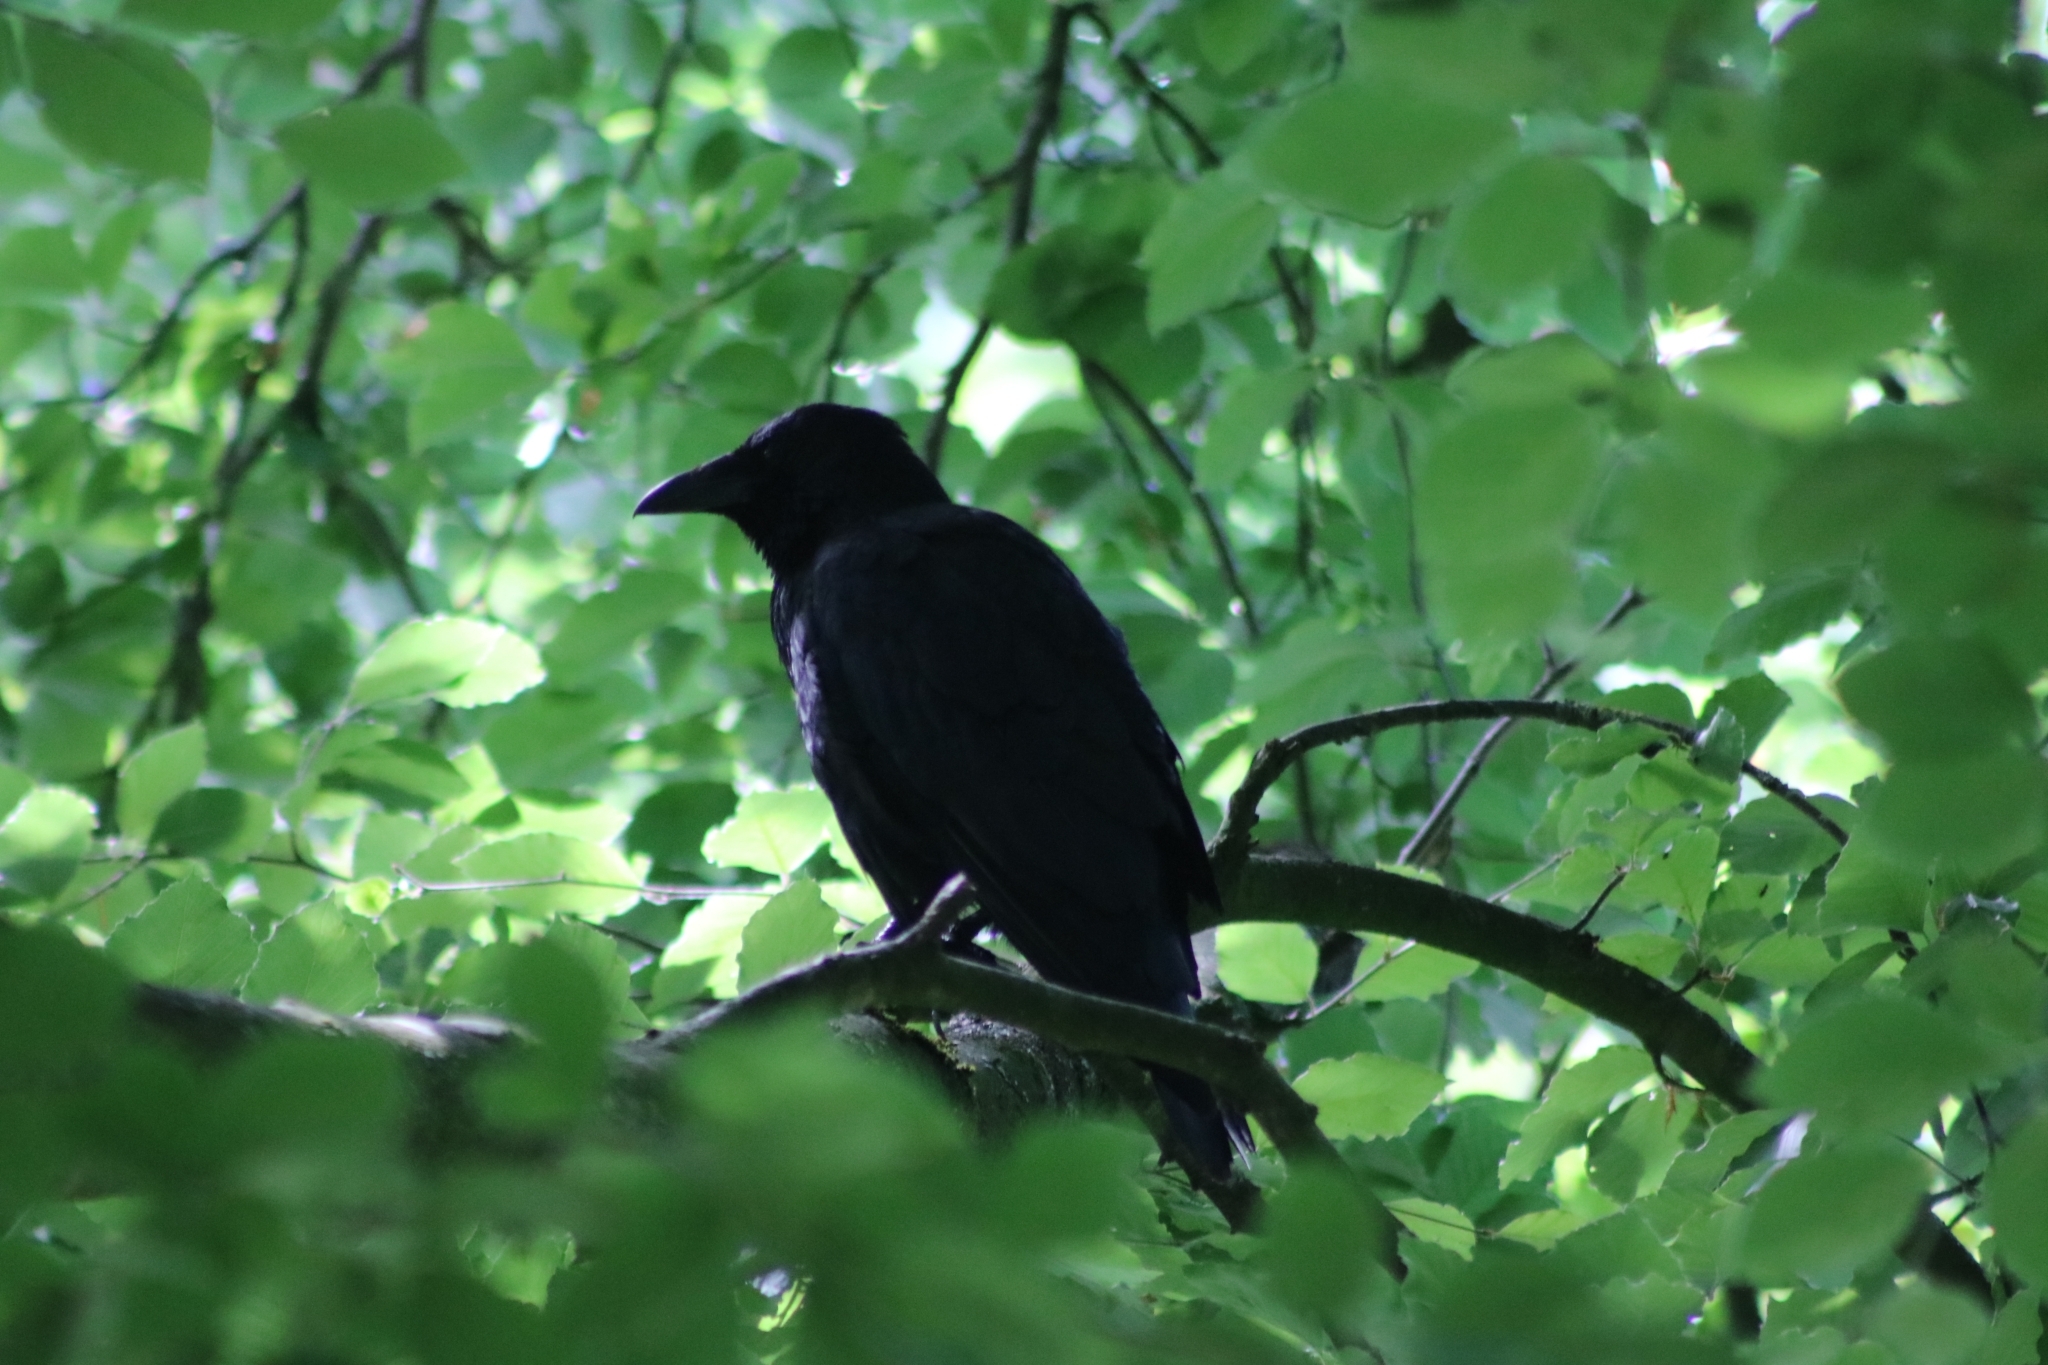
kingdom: Animalia
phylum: Chordata
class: Aves
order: Passeriformes
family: Corvidae
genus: Corvus
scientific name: Corvus corone
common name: Carrion crow
